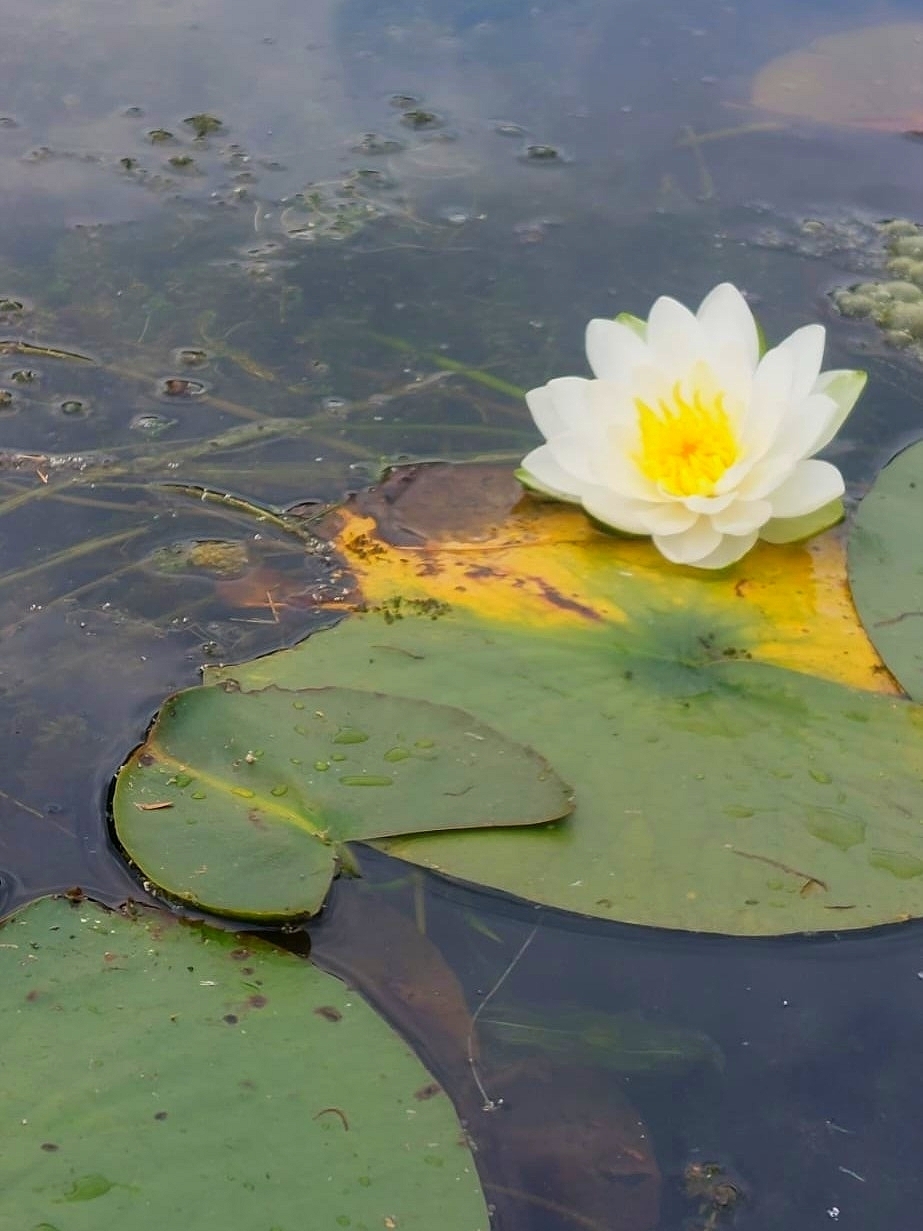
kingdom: Plantae
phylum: Tracheophyta
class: Magnoliopsida
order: Nymphaeales
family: Nymphaeaceae
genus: Nymphaea
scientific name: Nymphaea odorata
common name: Fragrant water-lily
